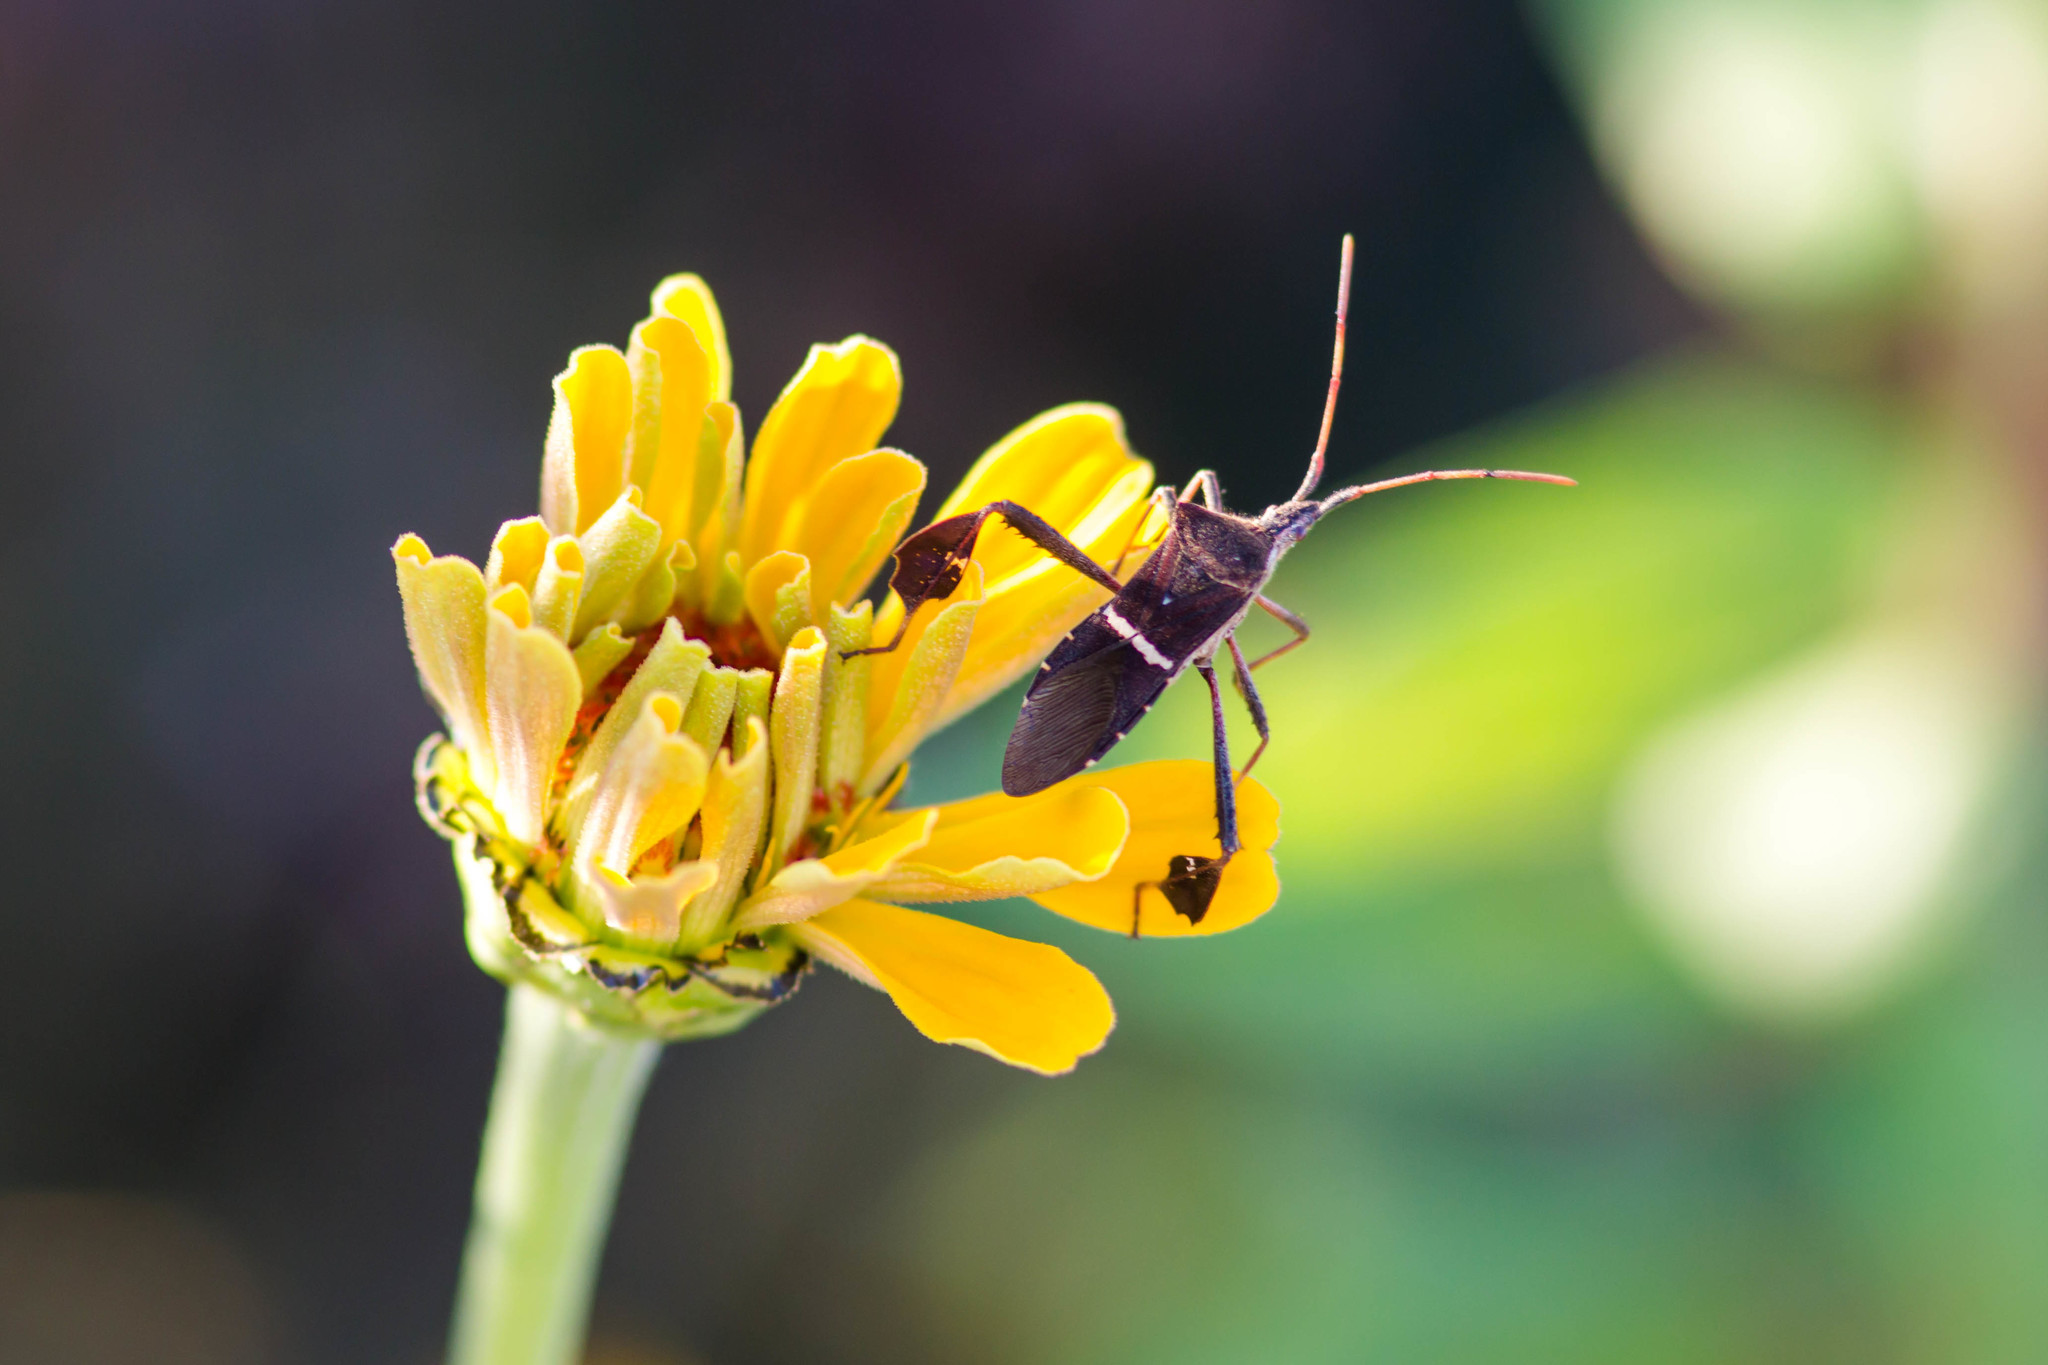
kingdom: Animalia
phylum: Arthropoda
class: Insecta
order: Hemiptera
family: Coreidae
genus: Leptoglossus
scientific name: Leptoglossus phyllopus
